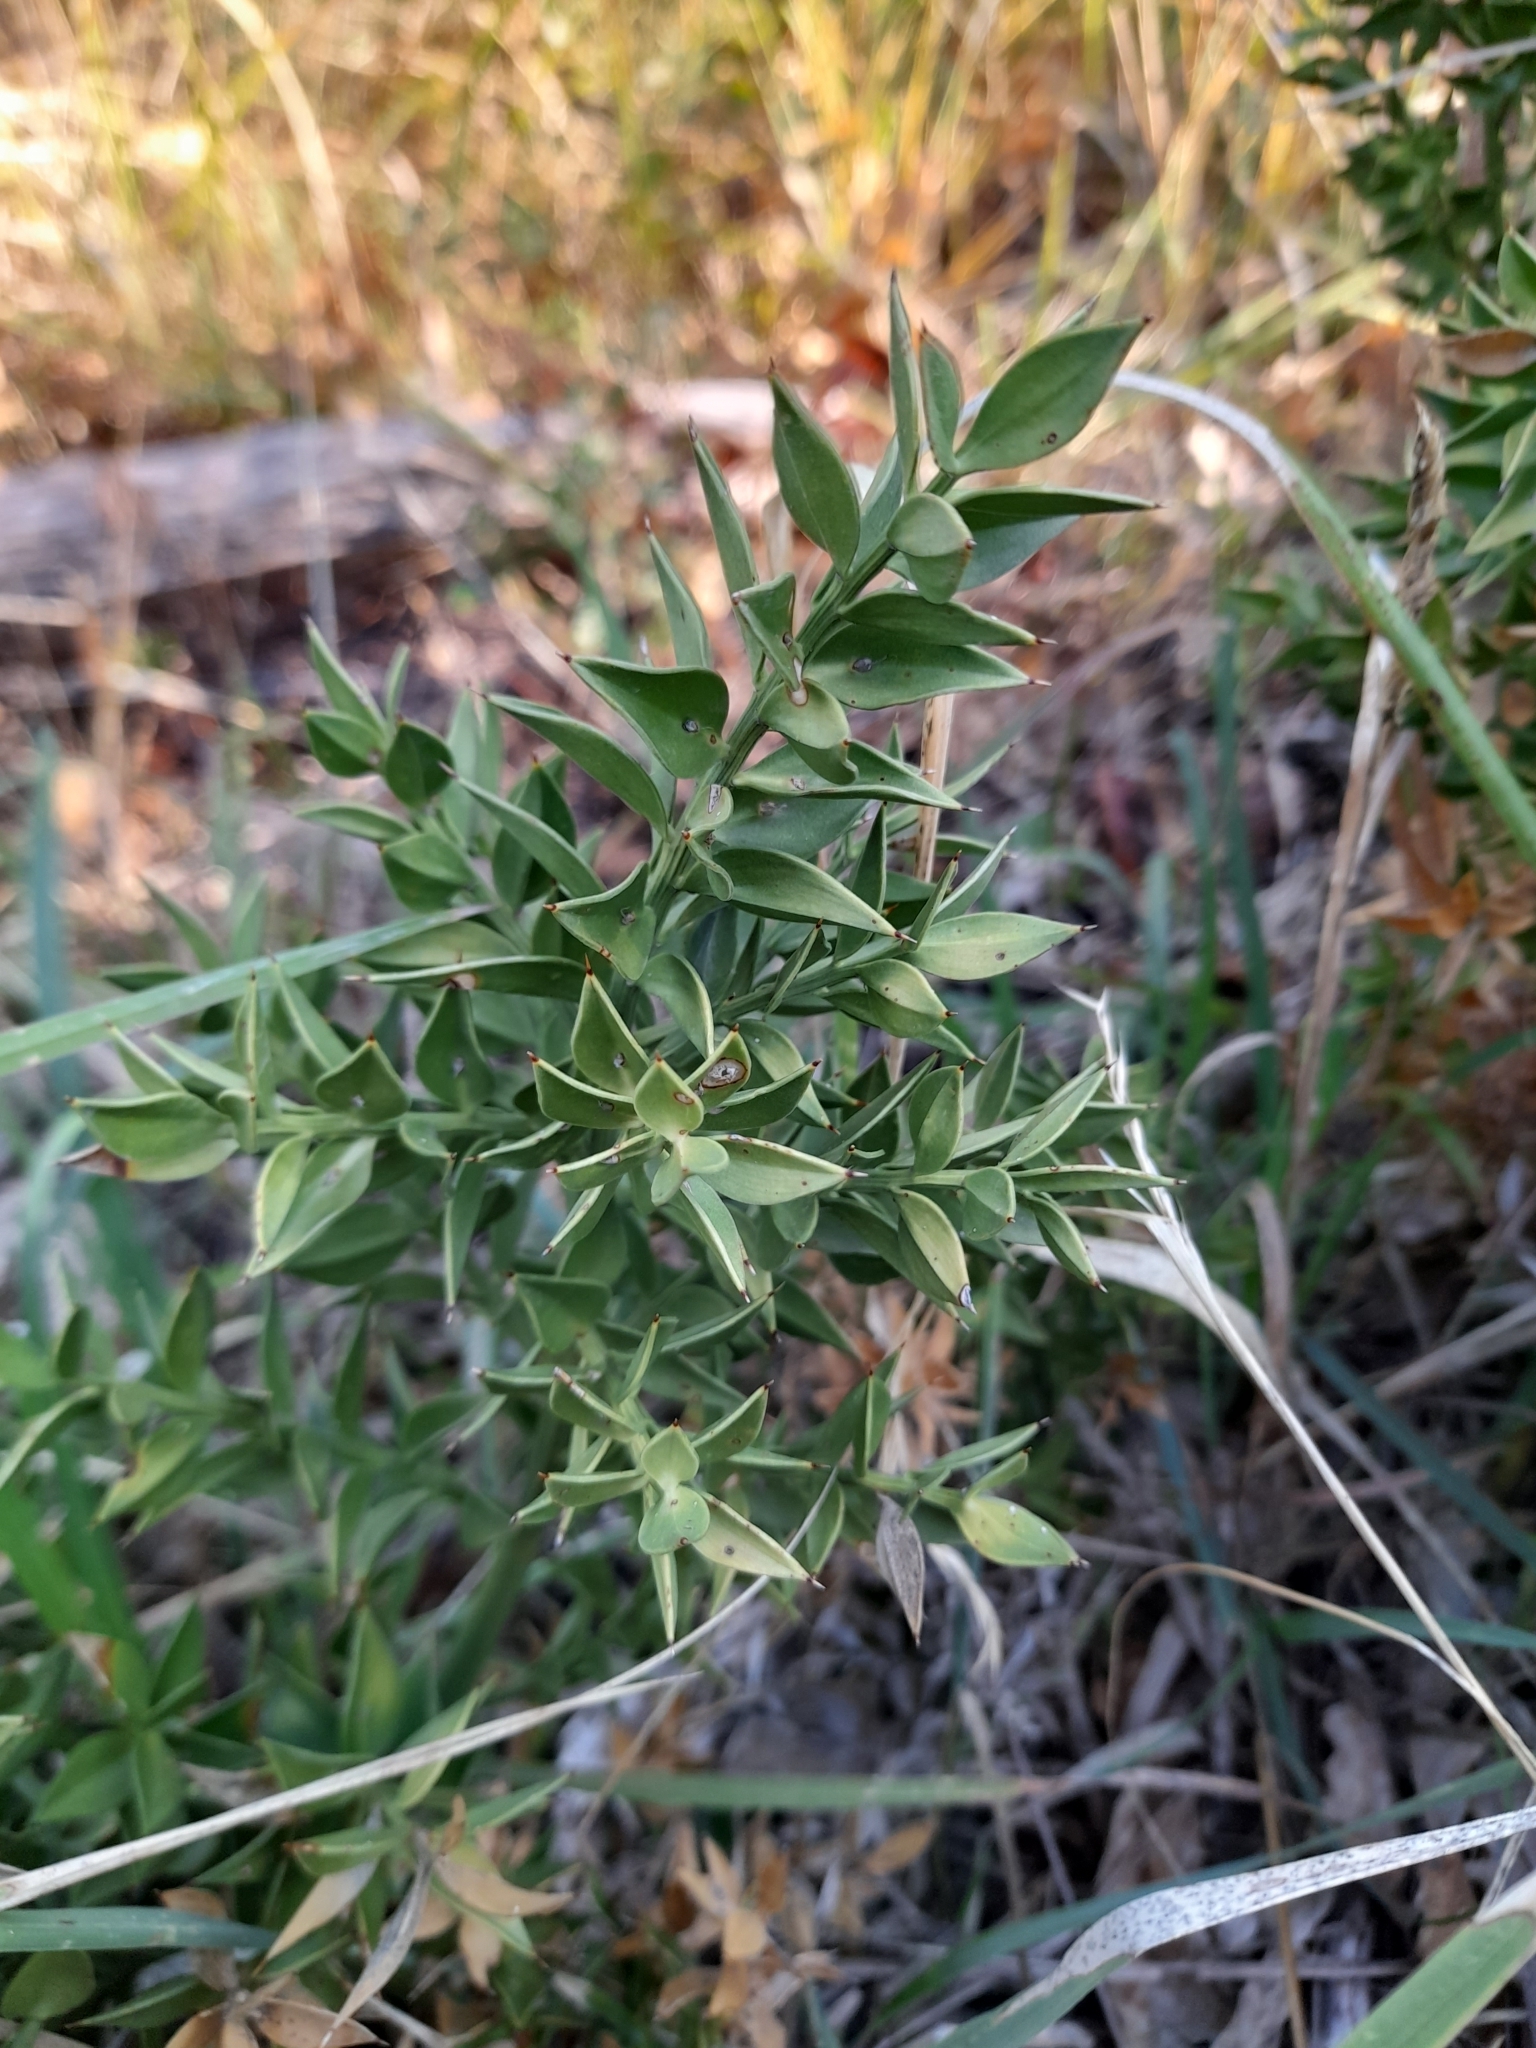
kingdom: Plantae
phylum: Tracheophyta
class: Liliopsida
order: Asparagales
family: Asparagaceae
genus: Ruscus
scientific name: Ruscus aculeatus
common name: Butcher's-broom
